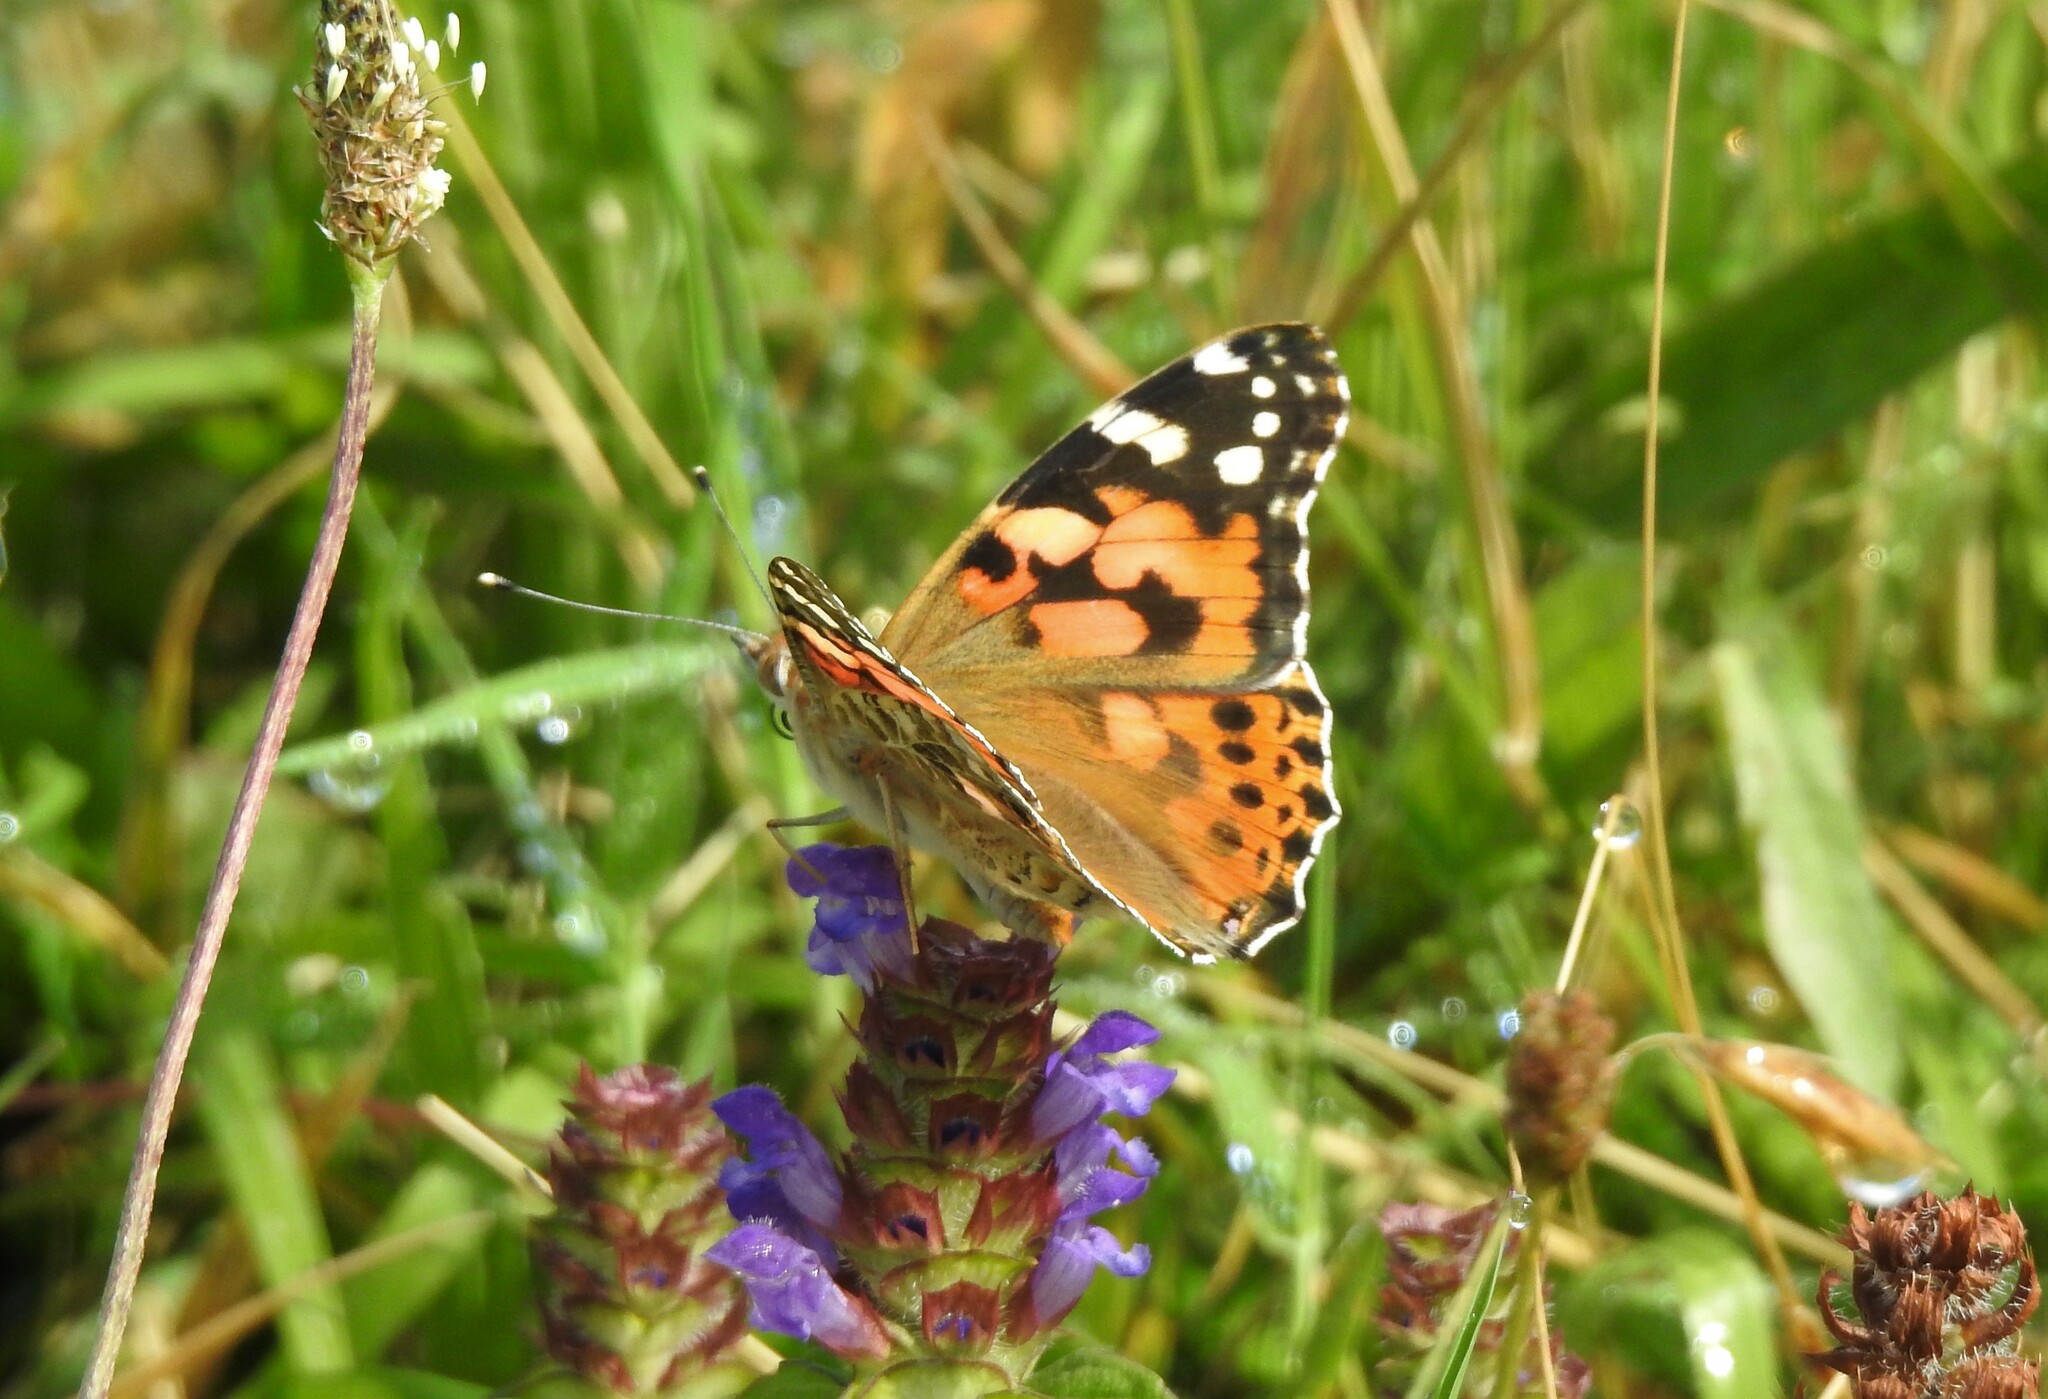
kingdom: Animalia
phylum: Arthropoda
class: Insecta
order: Lepidoptera
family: Nymphalidae
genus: Vanessa
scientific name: Vanessa cardui
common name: Painted lady
